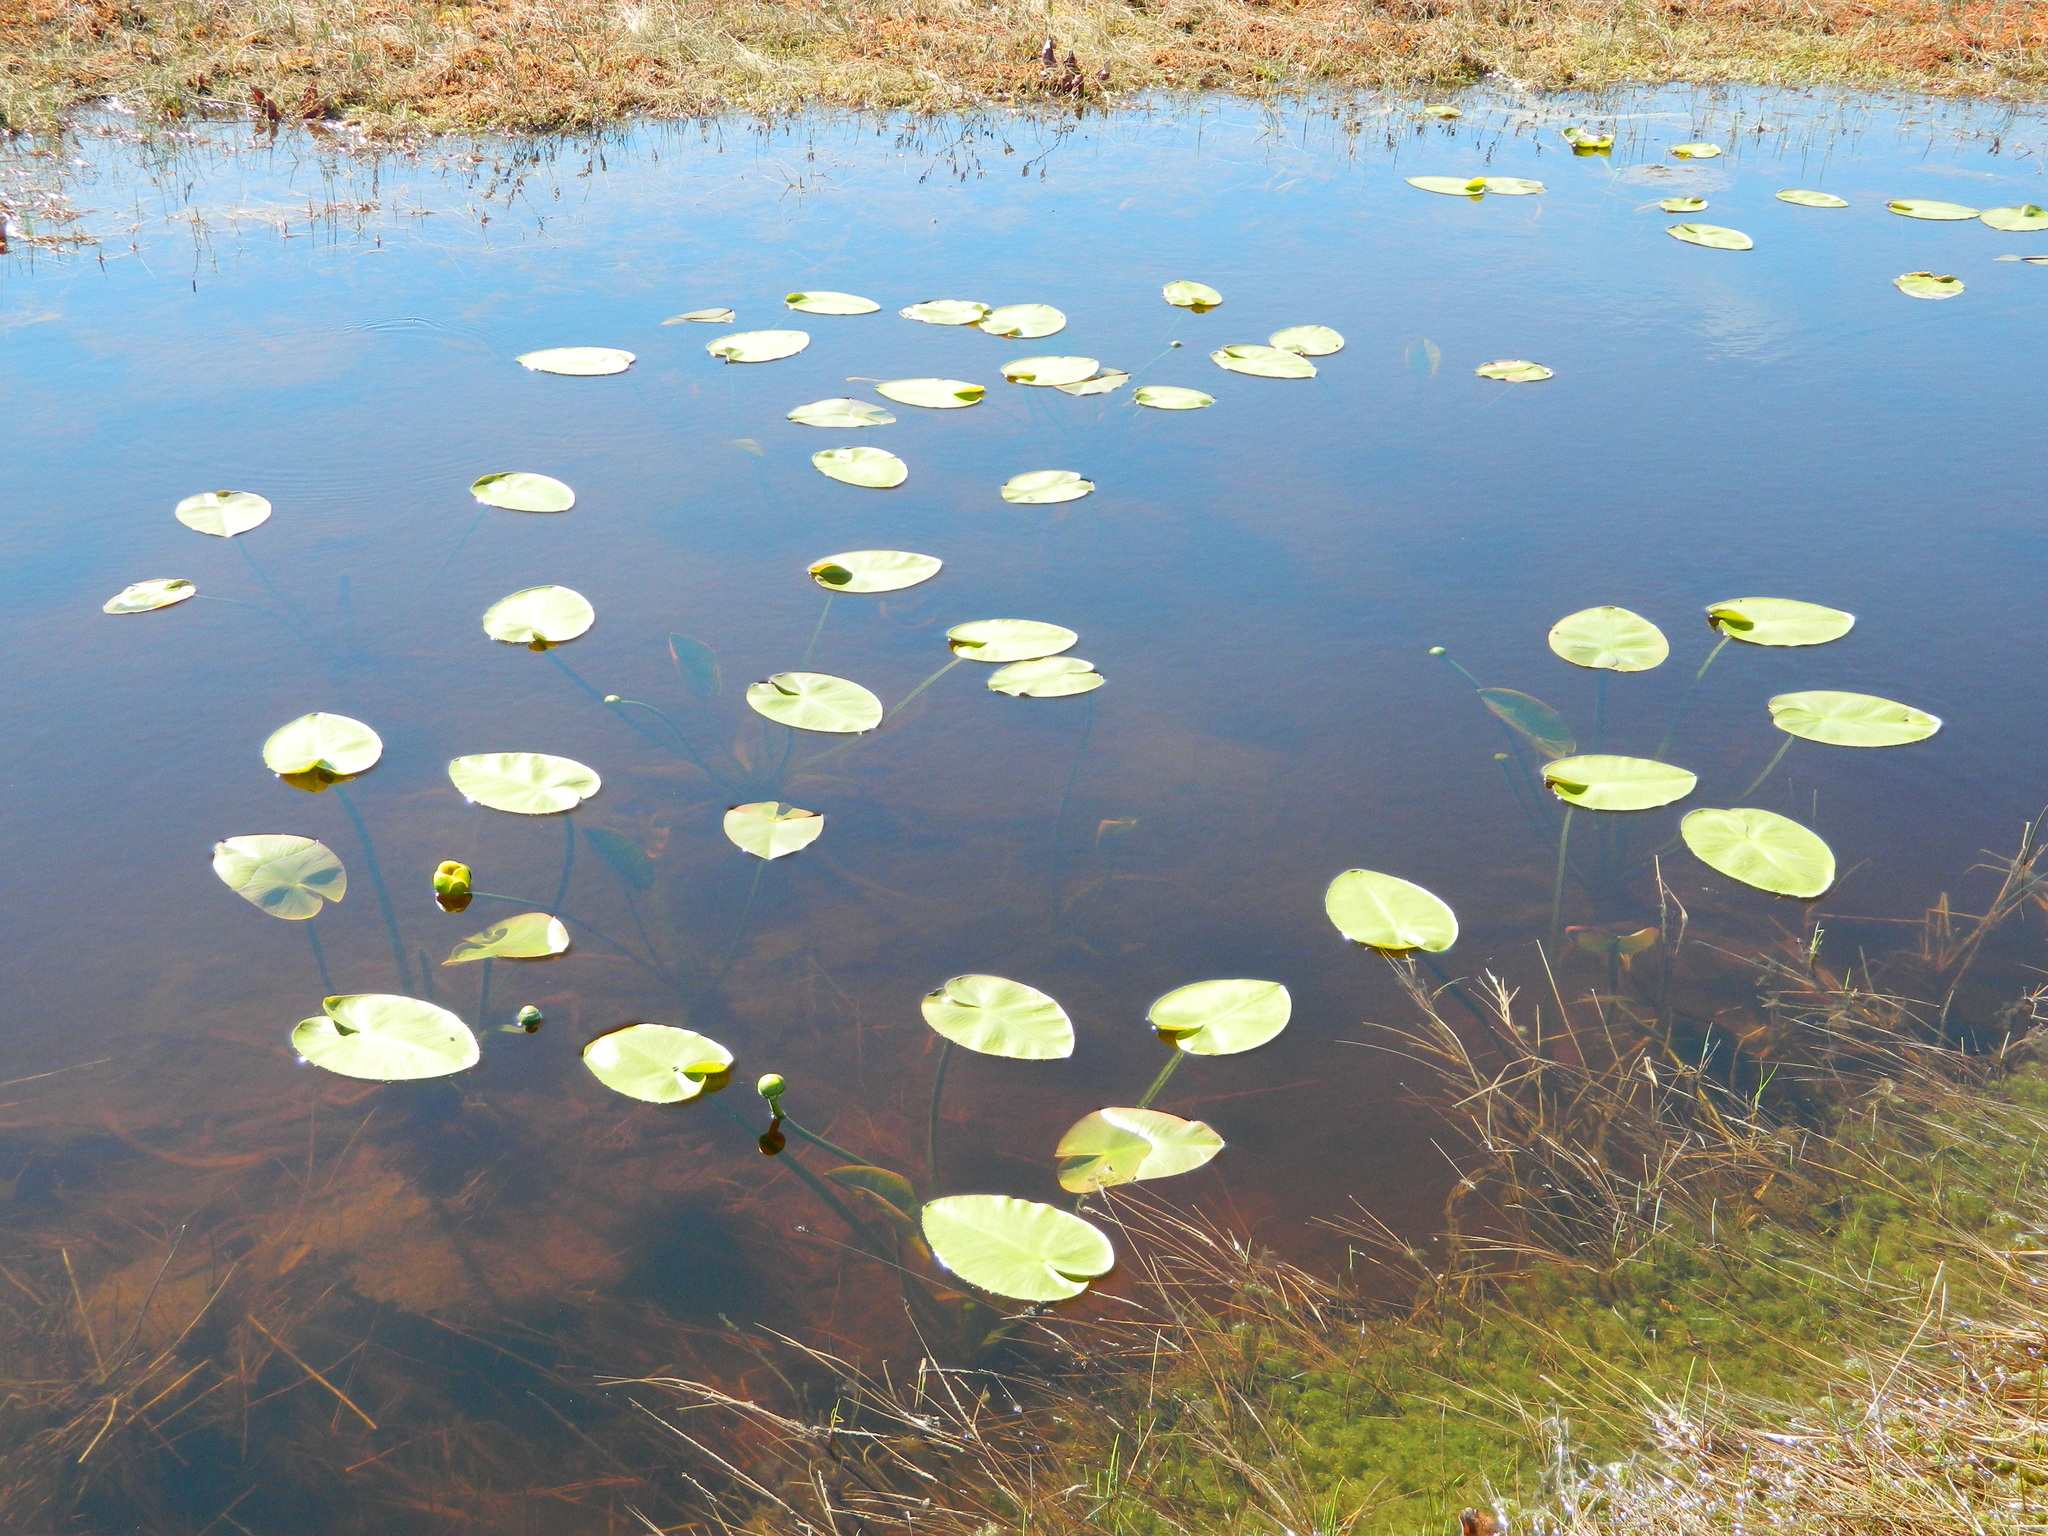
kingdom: Plantae
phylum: Tracheophyta
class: Magnoliopsida
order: Nymphaeales
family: Nymphaeaceae
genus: Nuphar
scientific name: Nuphar variegata
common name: Beaver-root
